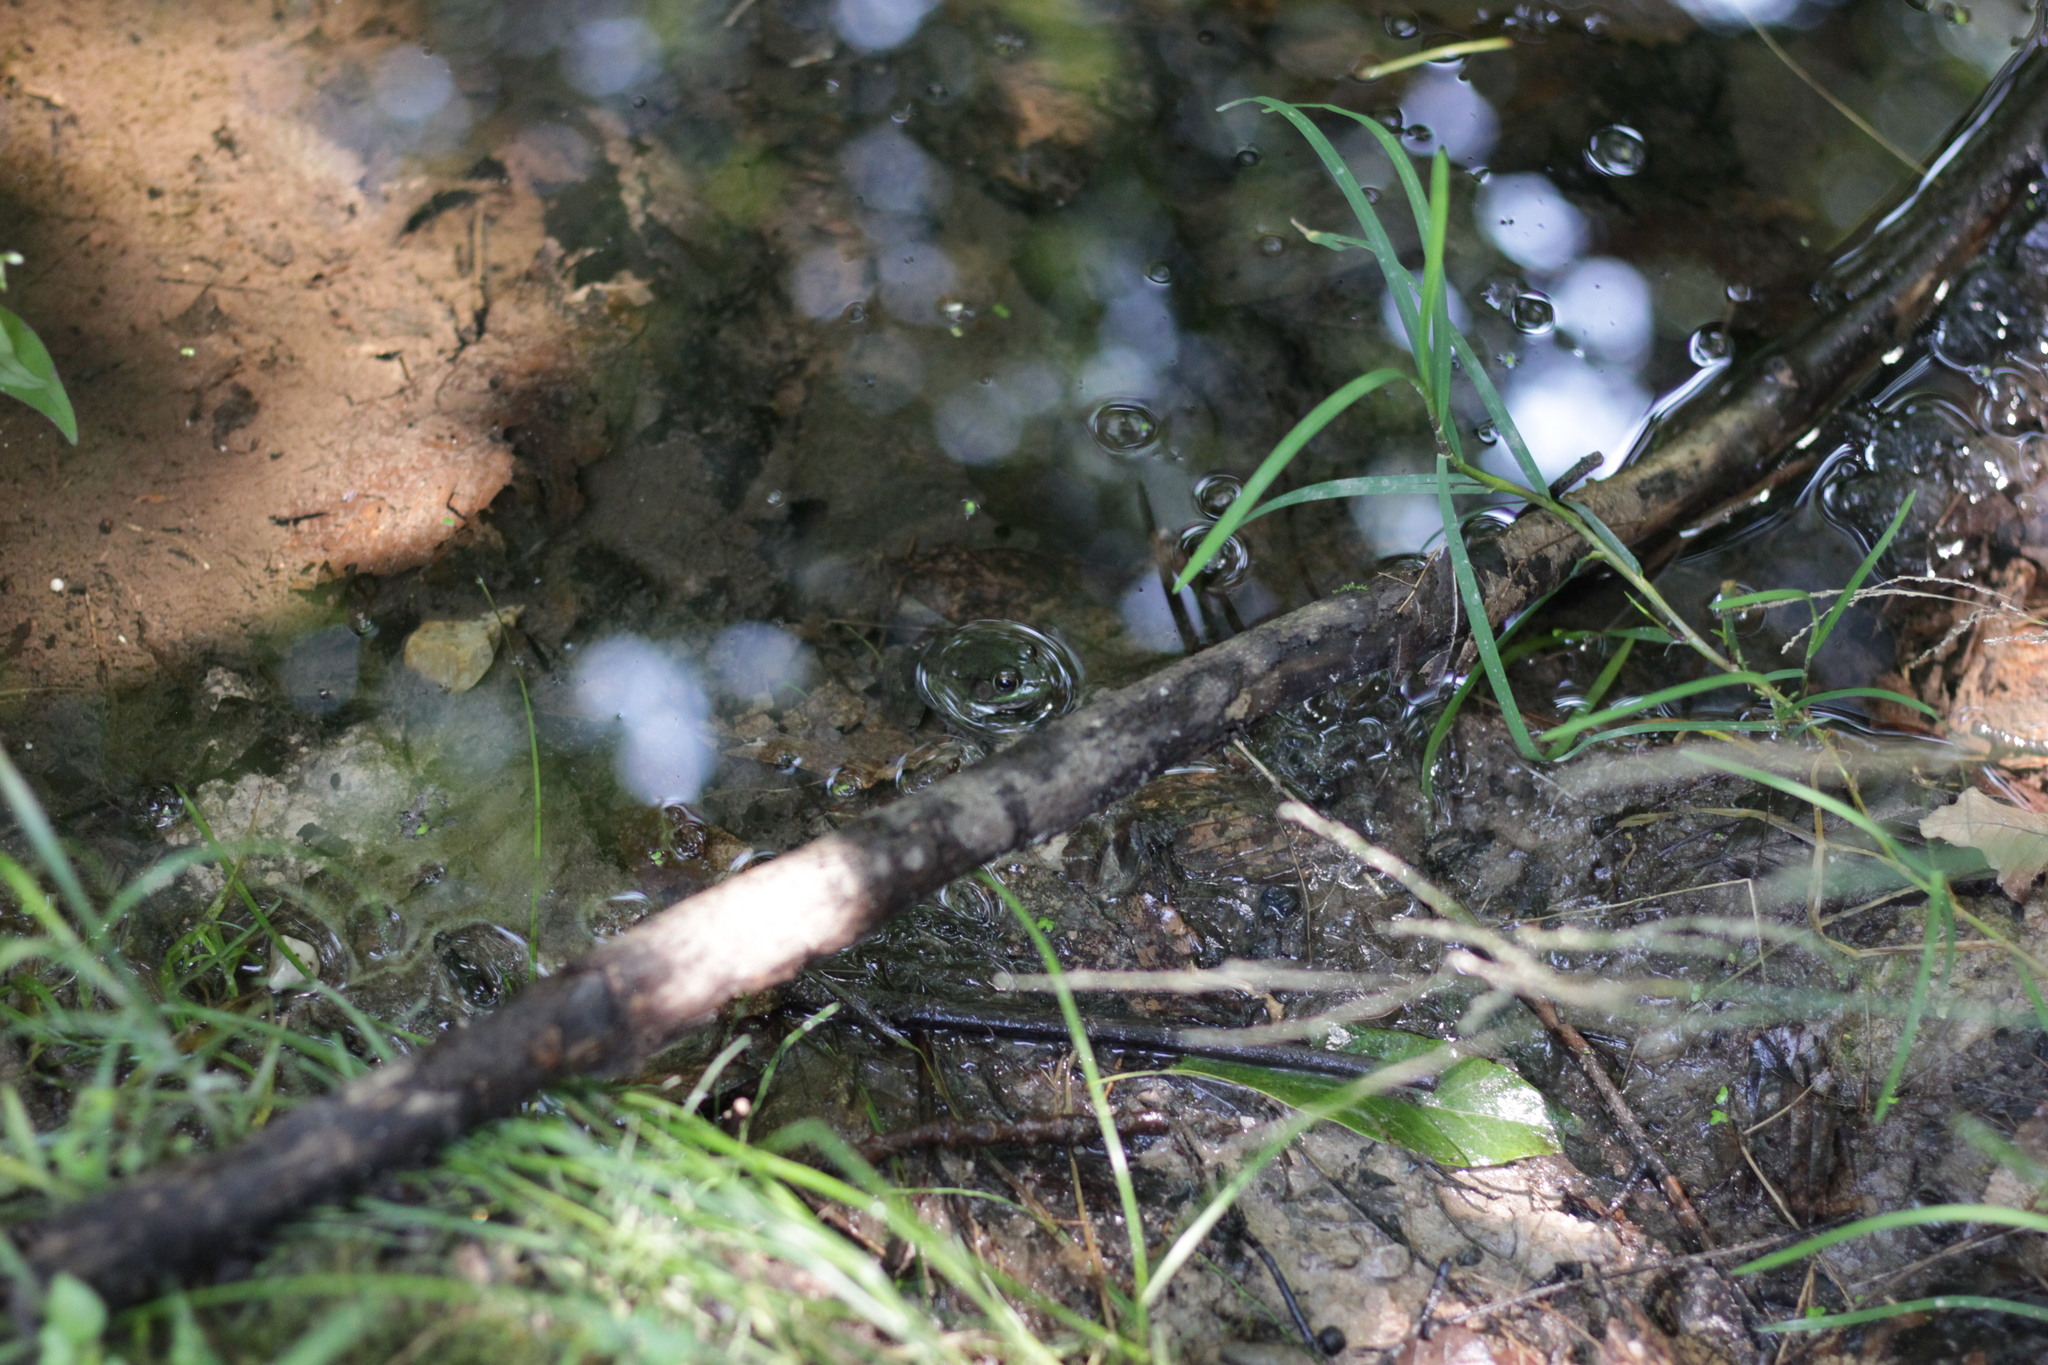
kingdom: Animalia
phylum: Chordata
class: Amphibia
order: Anura
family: Ranidae
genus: Lithobates
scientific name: Lithobates clamitans
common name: Green frog
